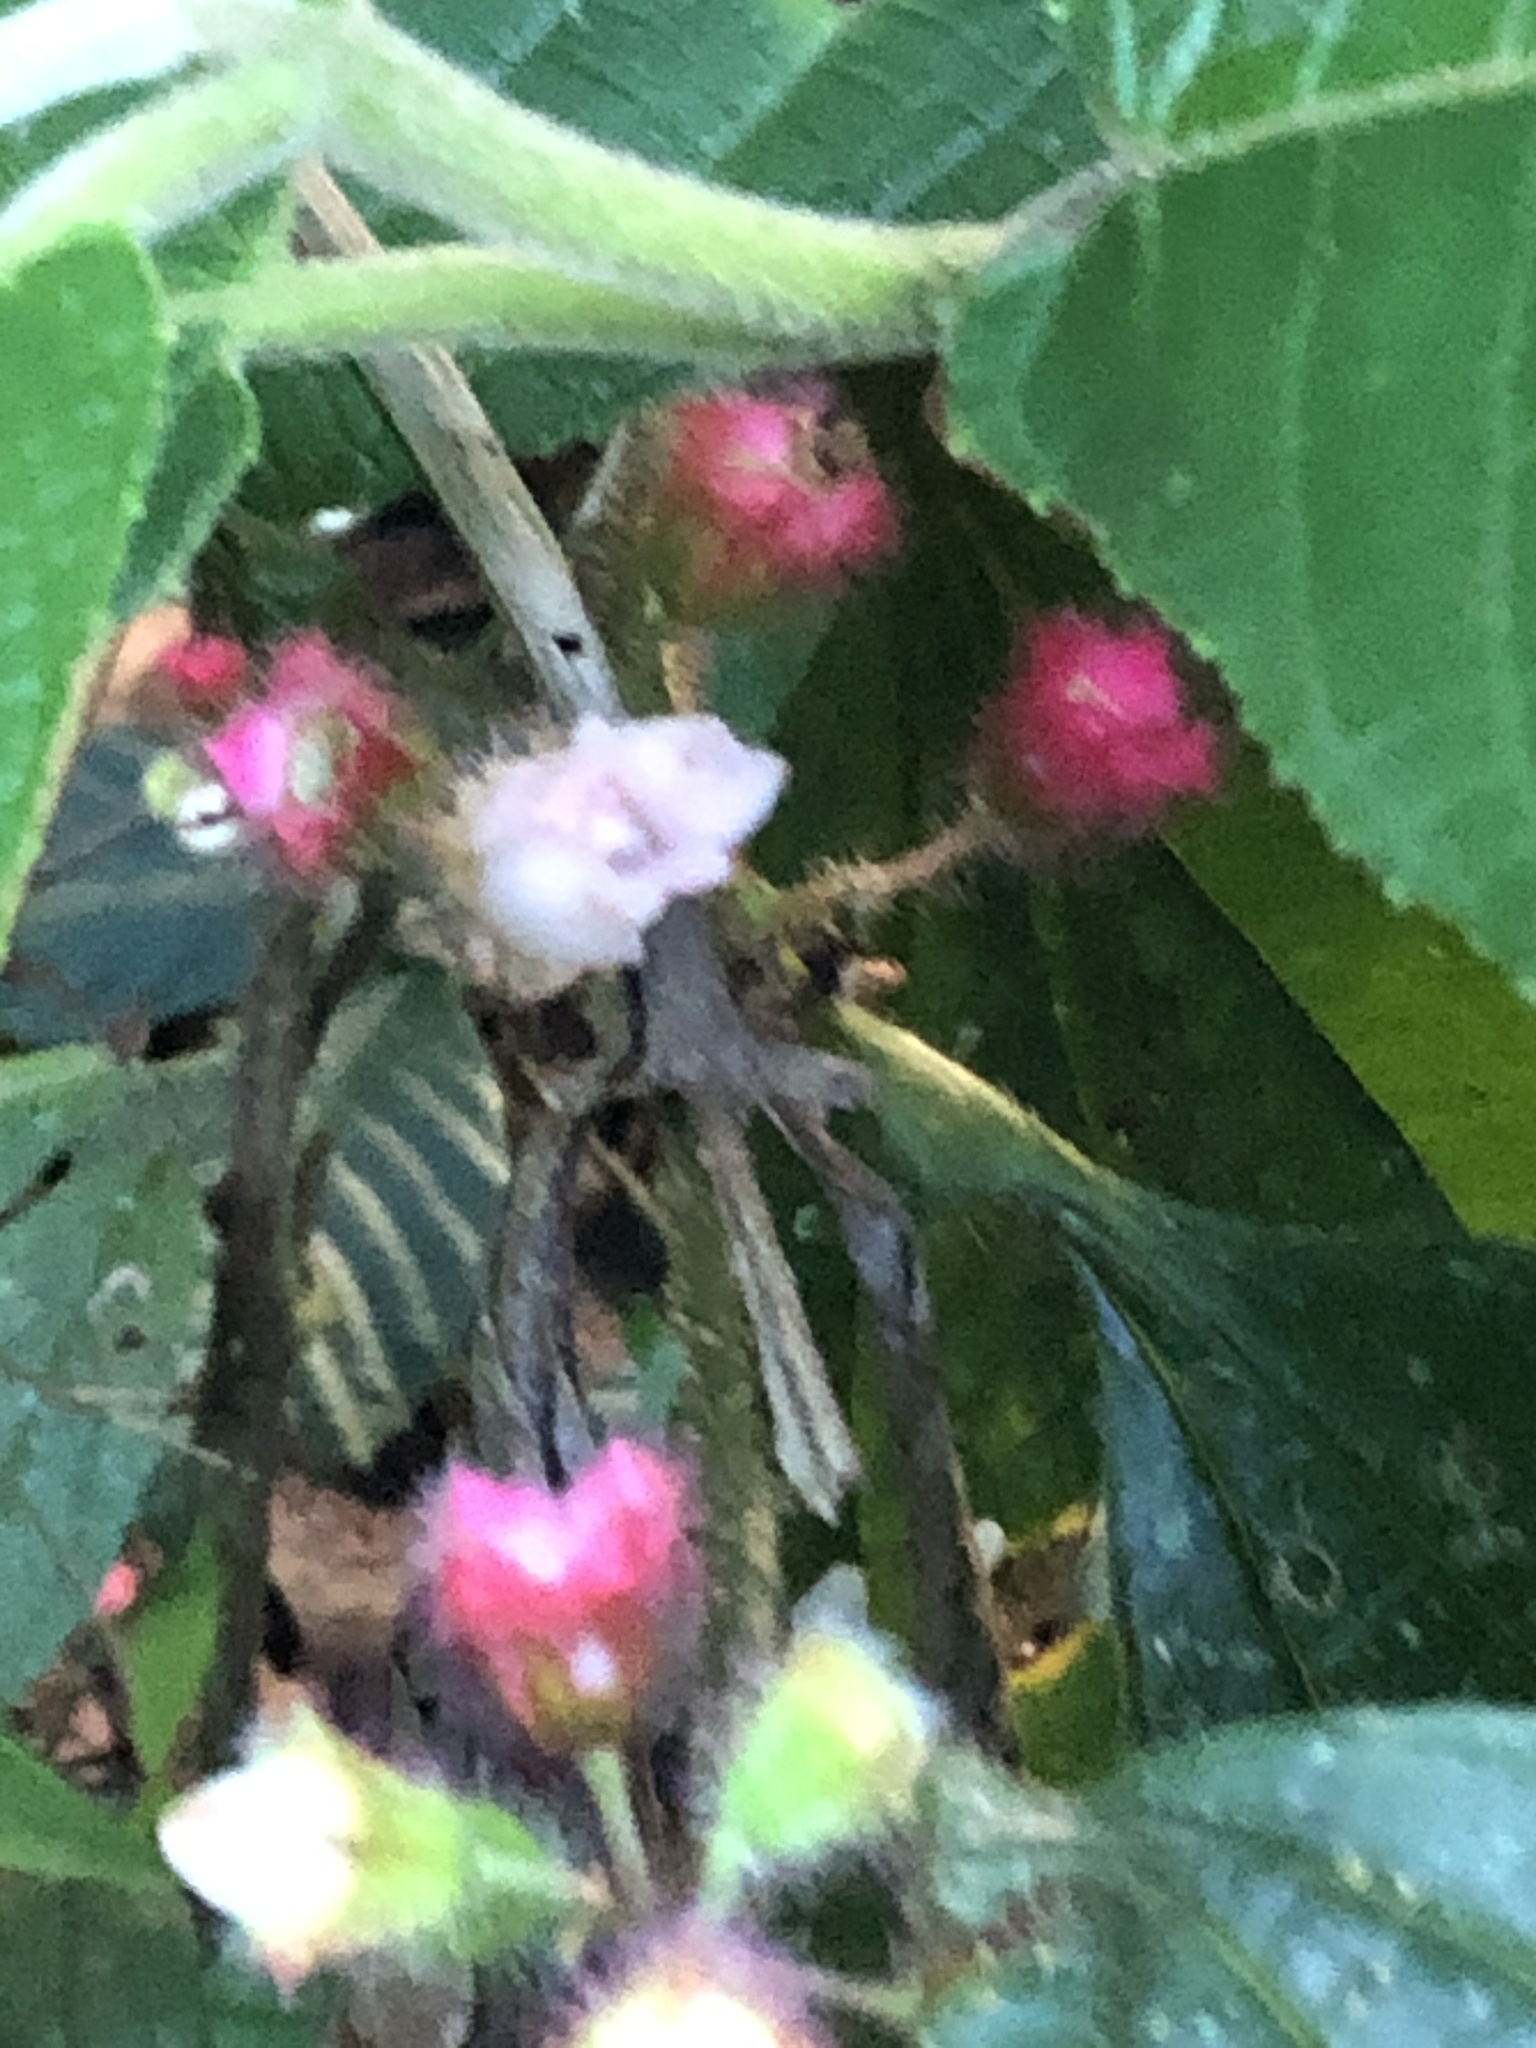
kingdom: Plantae
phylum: Tracheophyta
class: Magnoliopsida
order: Myrtales
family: Melastomataceae
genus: Miconia
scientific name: Miconia microphysca
